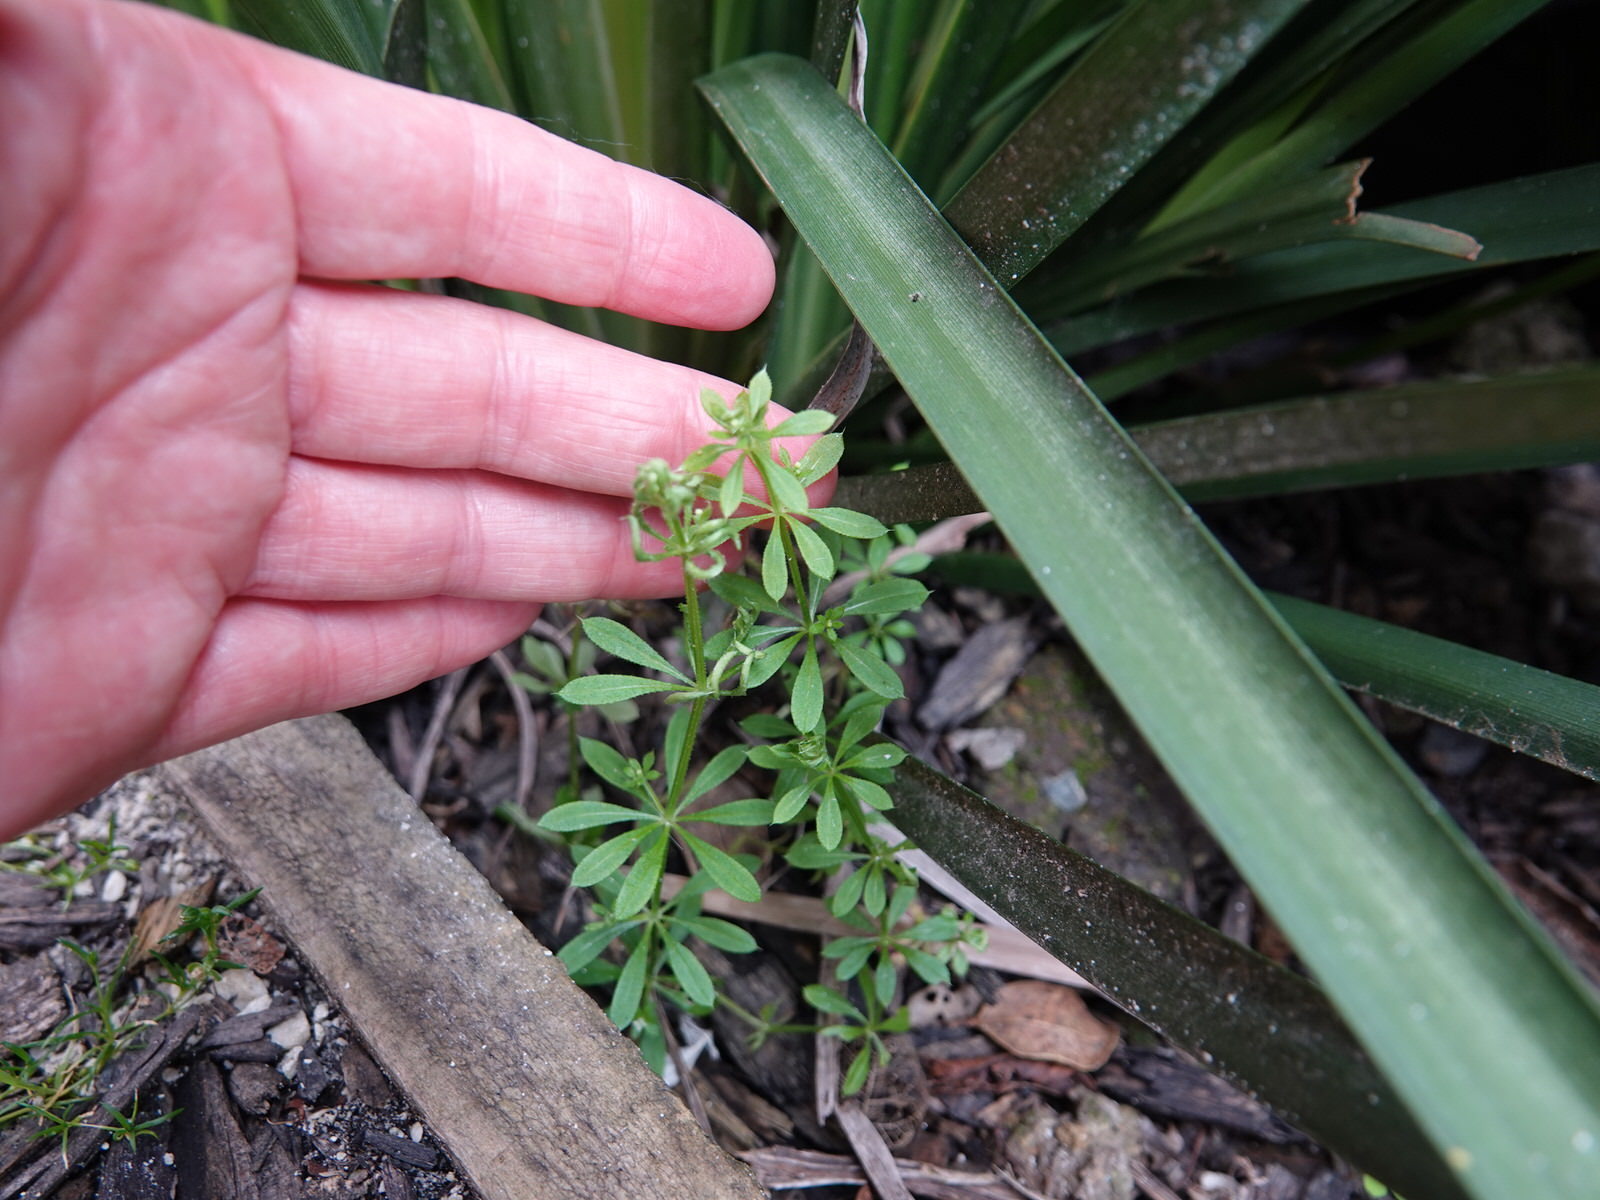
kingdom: Plantae
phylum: Tracheophyta
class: Magnoliopsida
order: Gentianales
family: Rubiaceae
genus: Galium
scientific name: Galium aparine
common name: Cleavers
